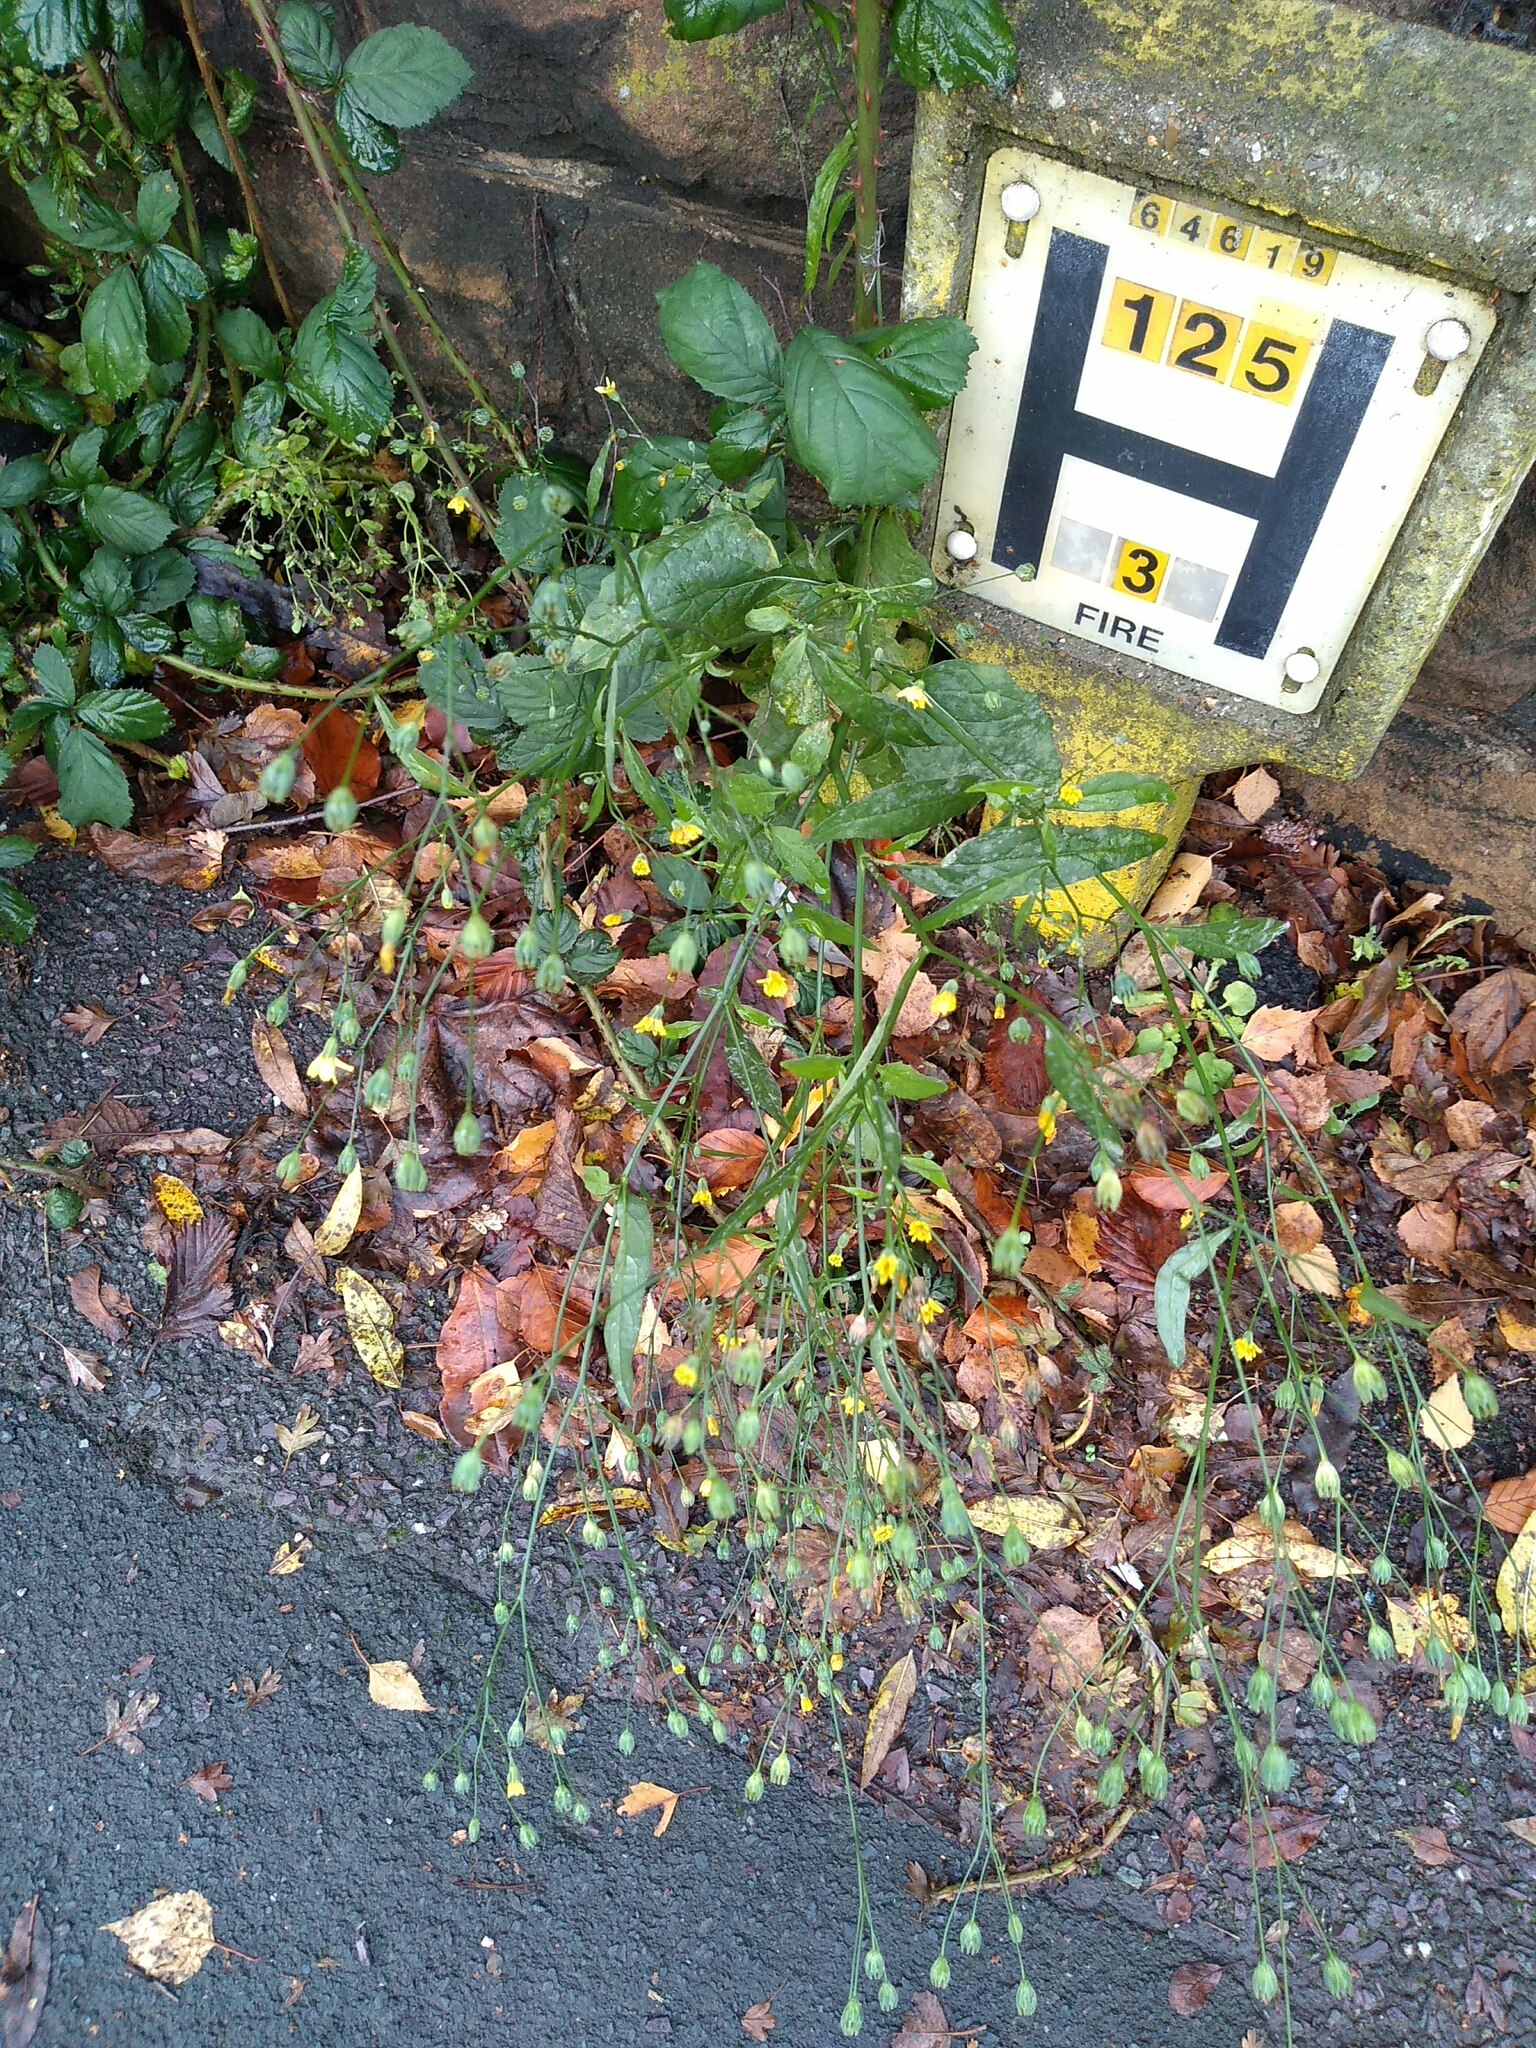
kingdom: Plantae
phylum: Tracheophyta
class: Magnoliopsida
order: Asterales
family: Asteraceae
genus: Lapsana
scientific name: Lapsana communis
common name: Nipplewort
